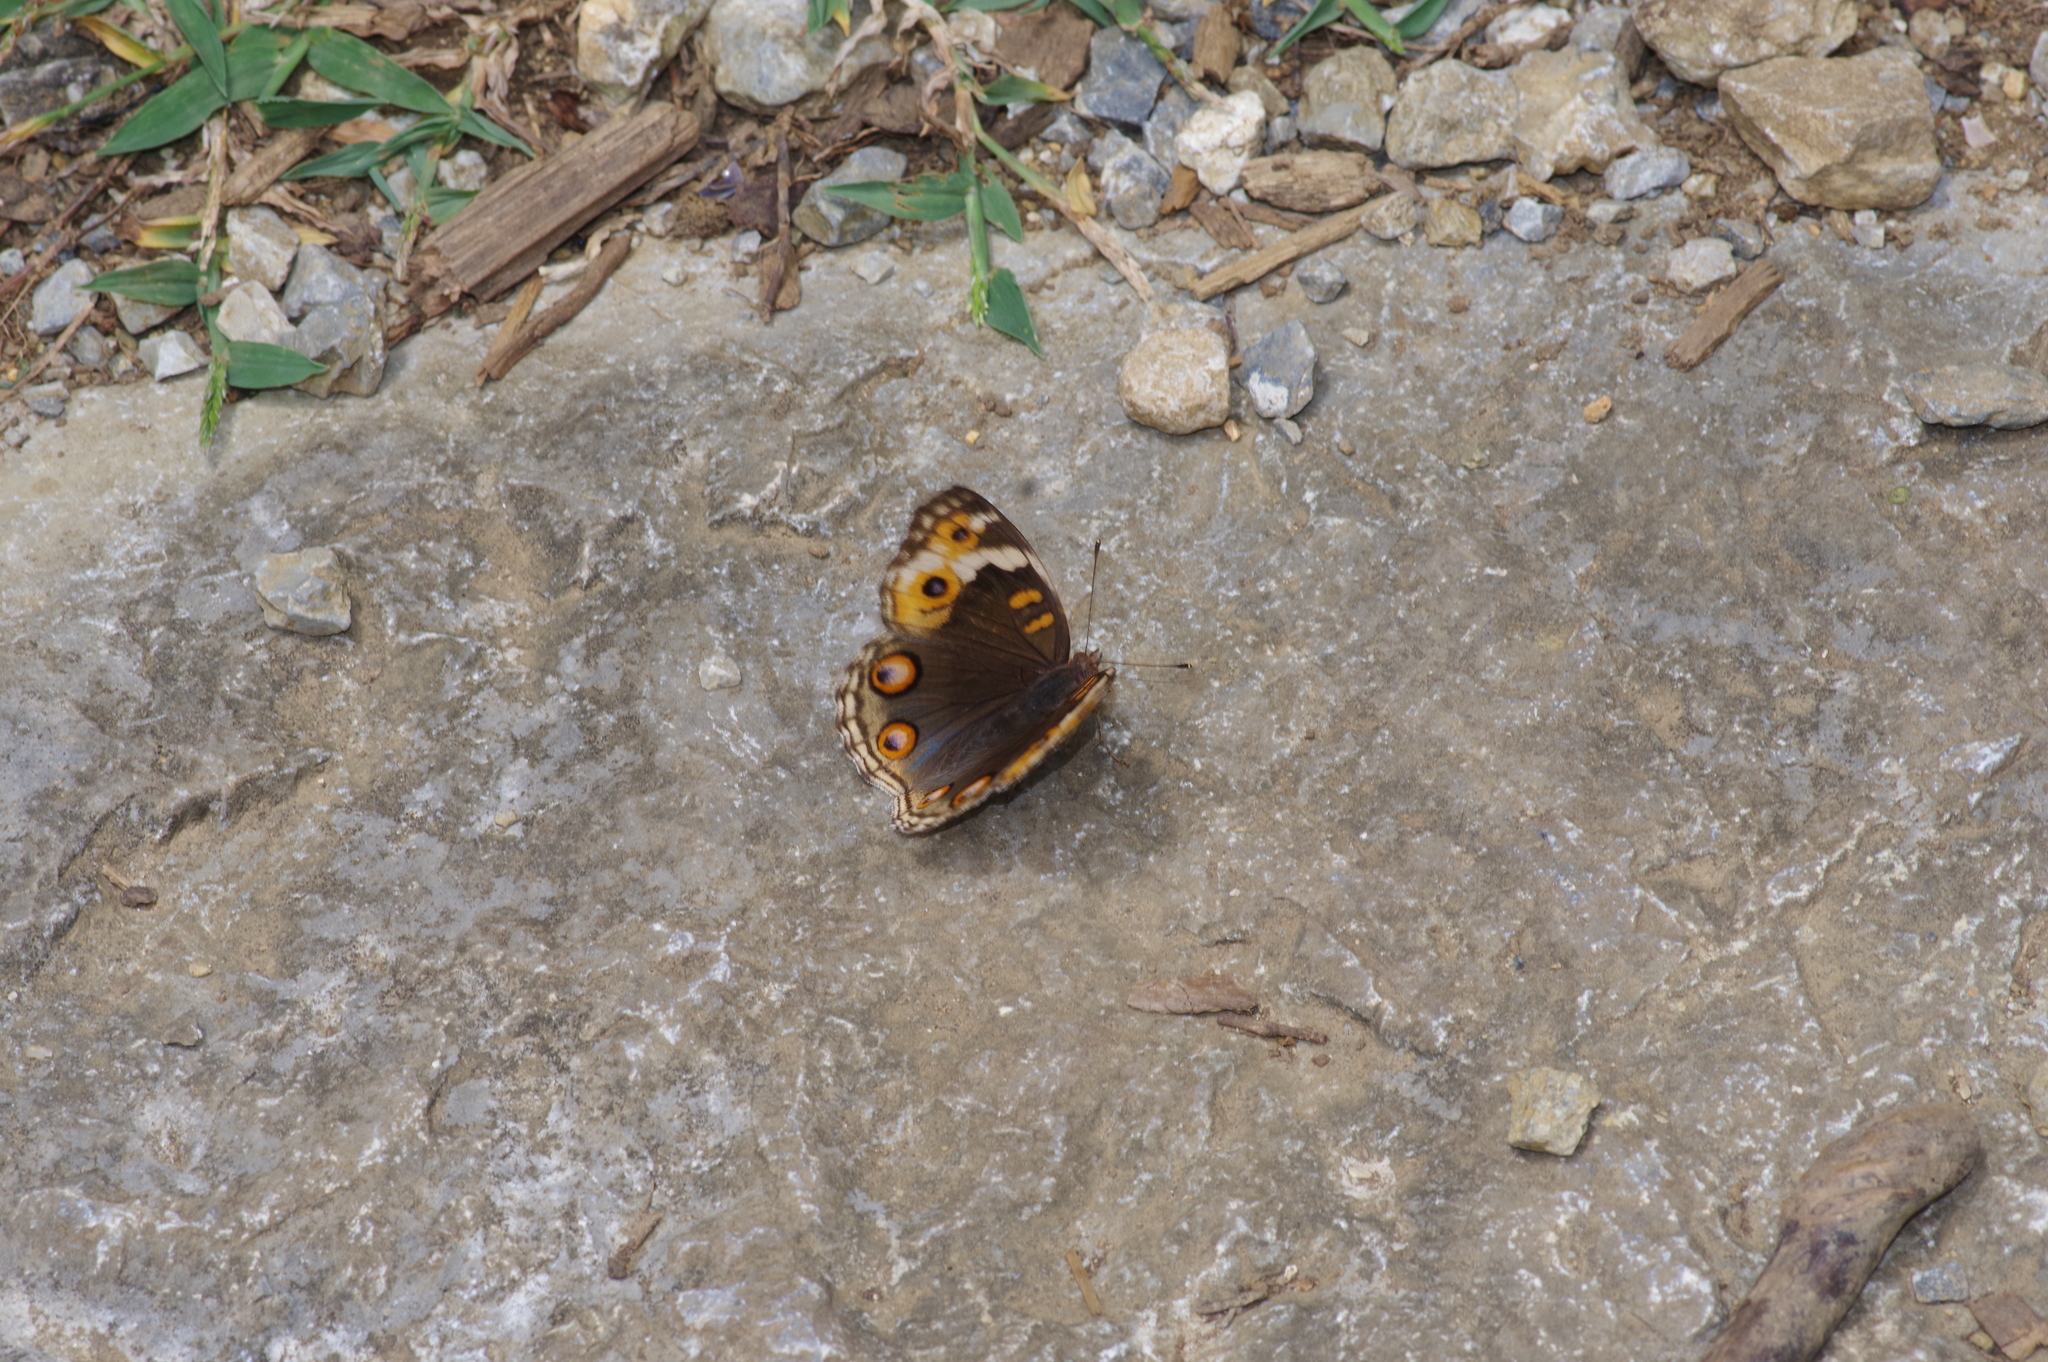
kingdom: Animalia
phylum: Arthropoda
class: Insecta
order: Lepidoptera
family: Nymphalidae
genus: Junonia
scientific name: Junonia orithya
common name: Blue pansy
